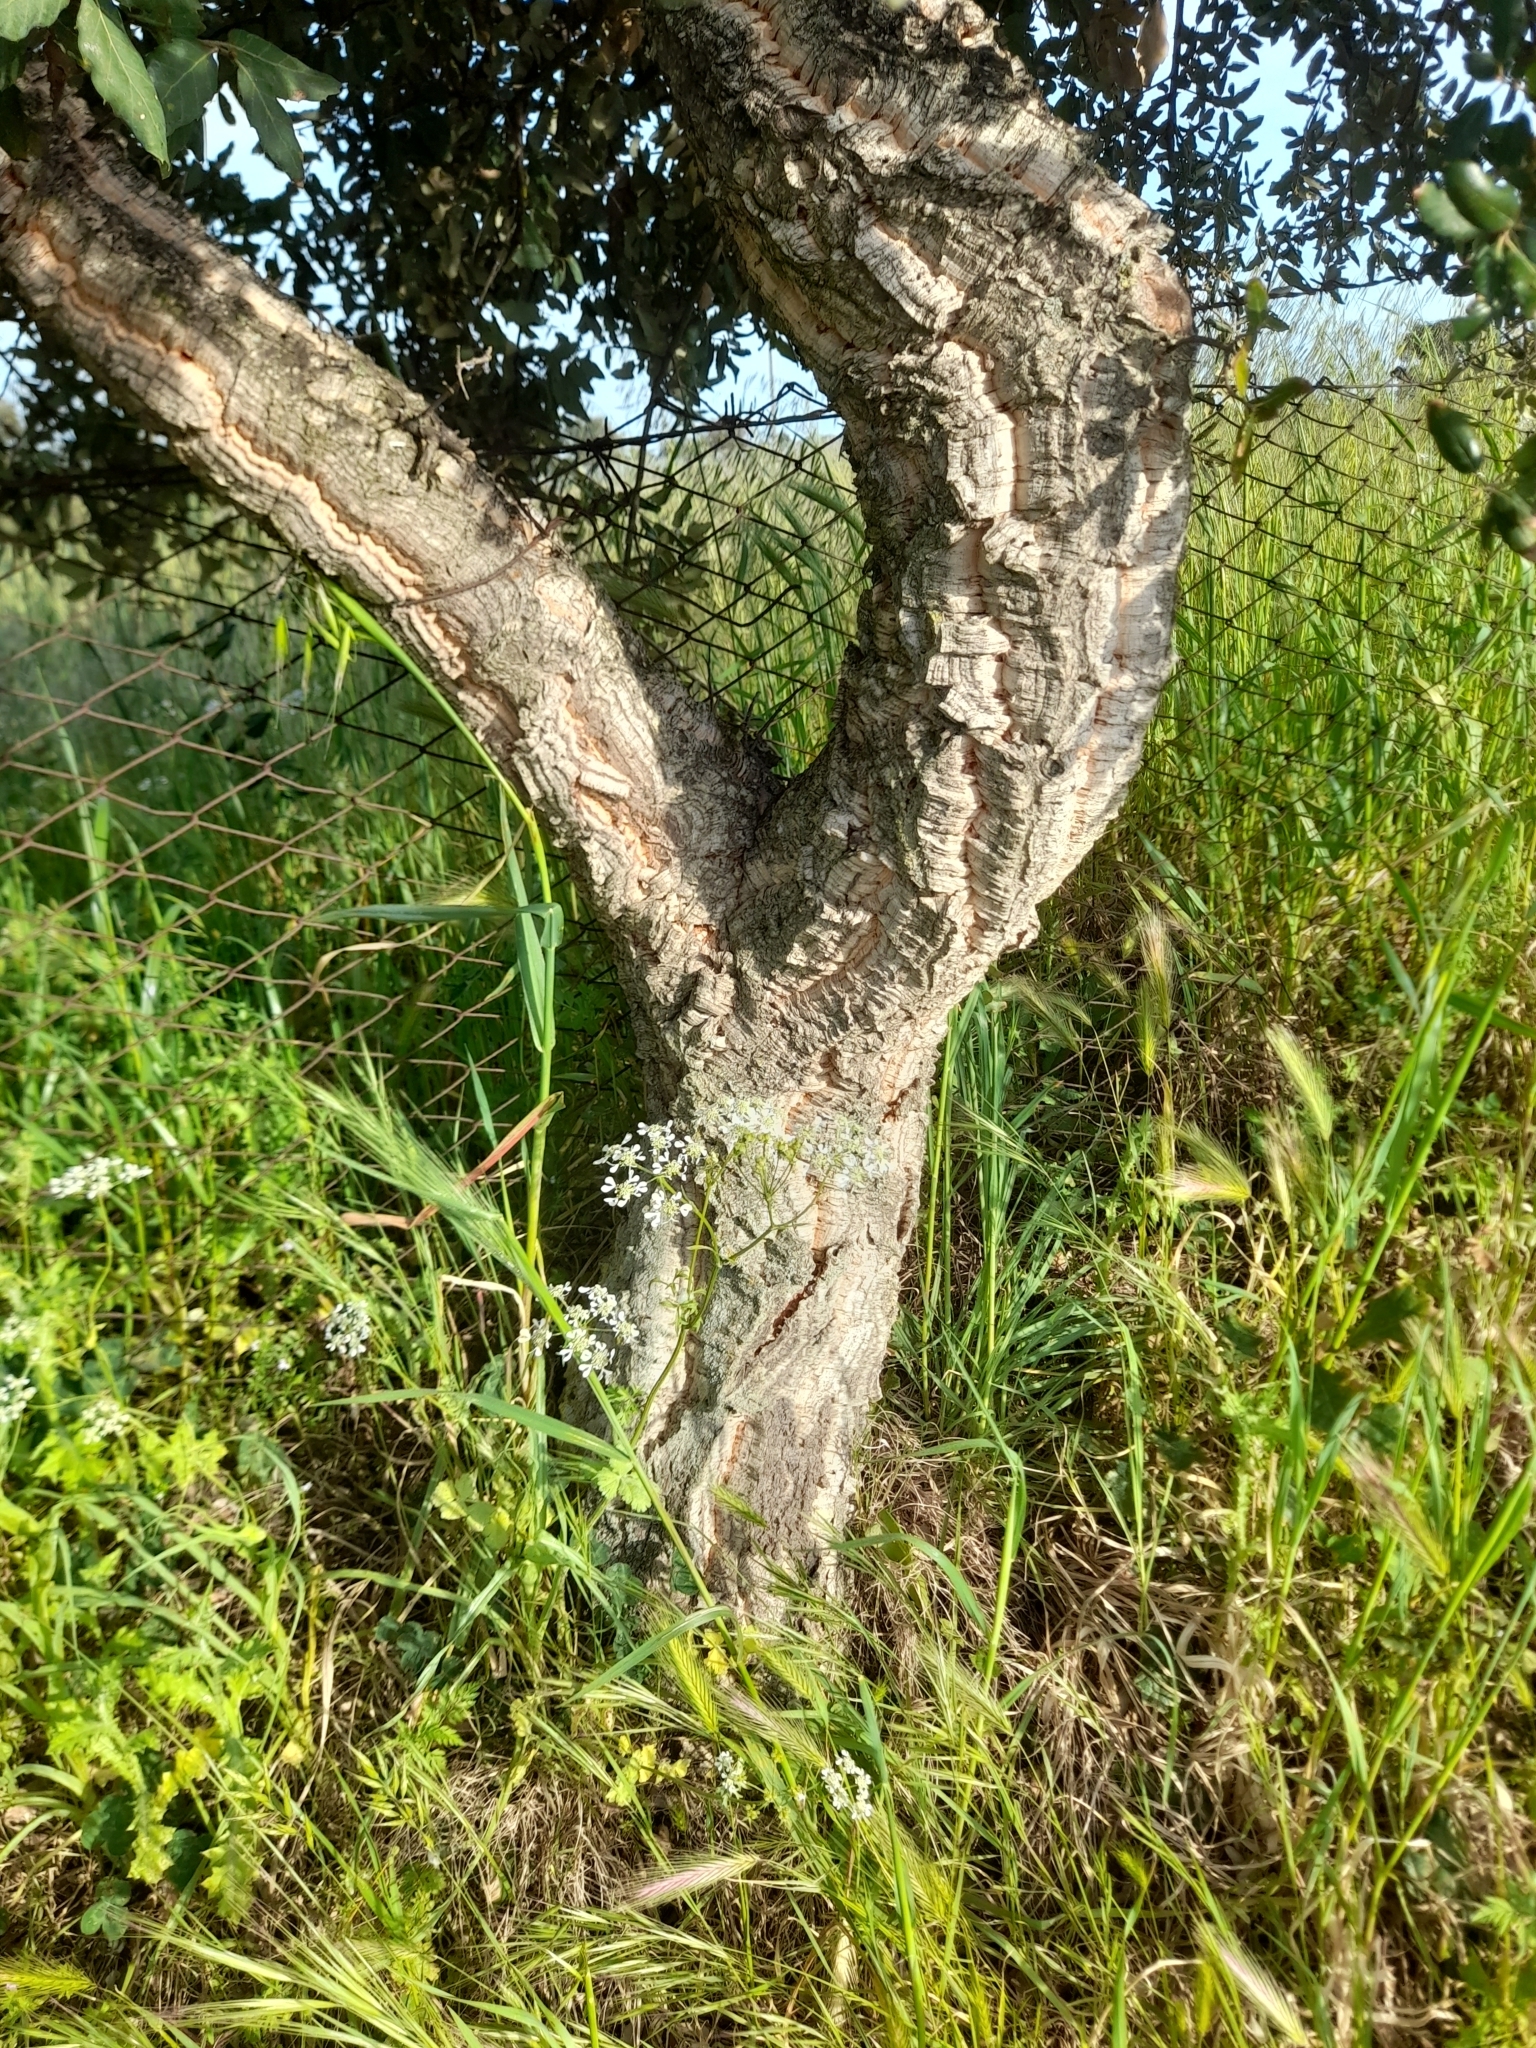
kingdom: Plantae
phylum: Tracheophyta
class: Magnoliopsida
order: Fagales
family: Fagaceae
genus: Quercus
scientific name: Quercus suber
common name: Cork oak
